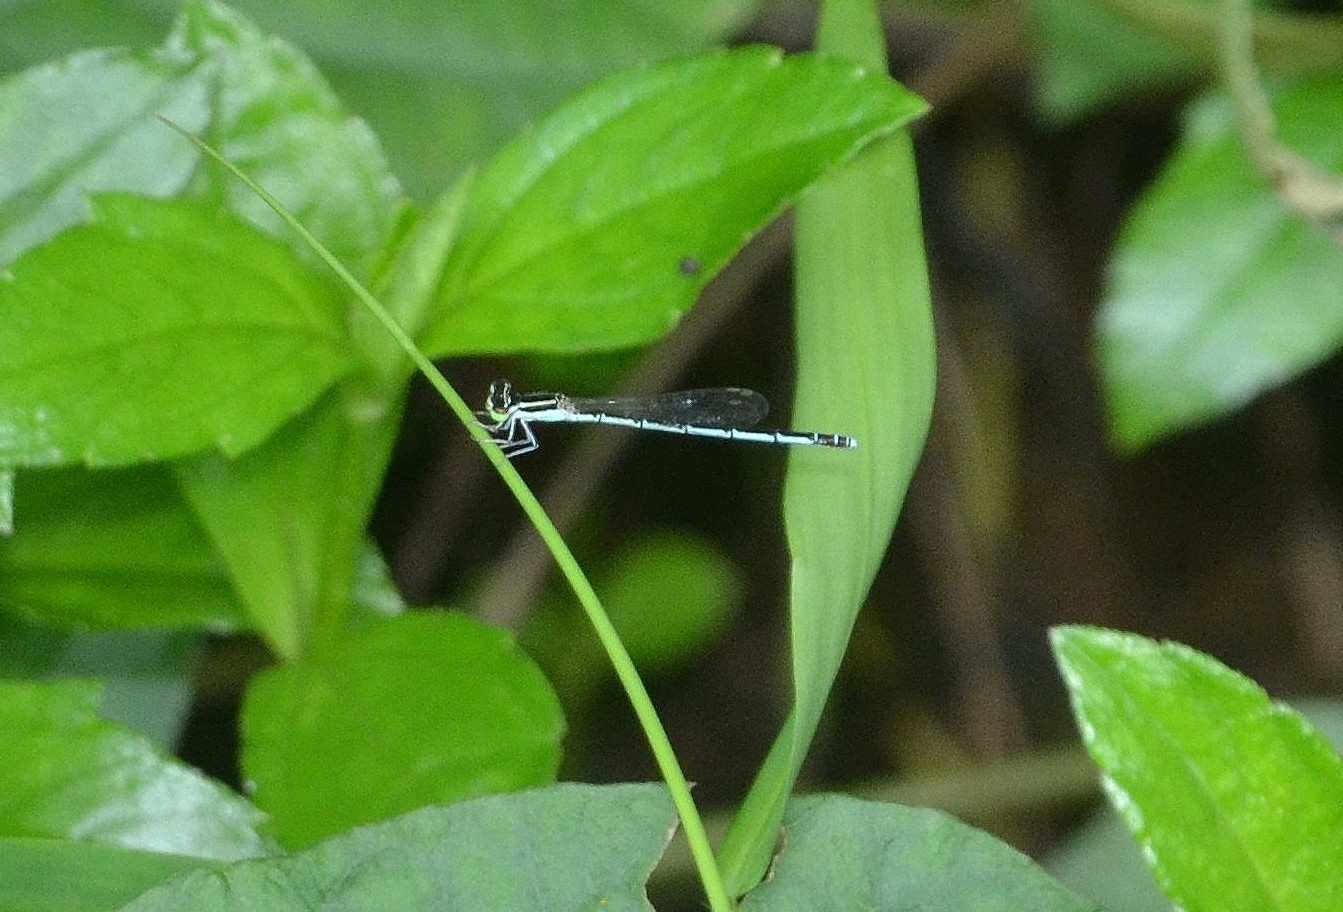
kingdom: Animalia
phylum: Arthropoda
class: Insecta
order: Odonata
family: Coenagrionidae
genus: Agriocnemis
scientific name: Agriocnemis pieris
